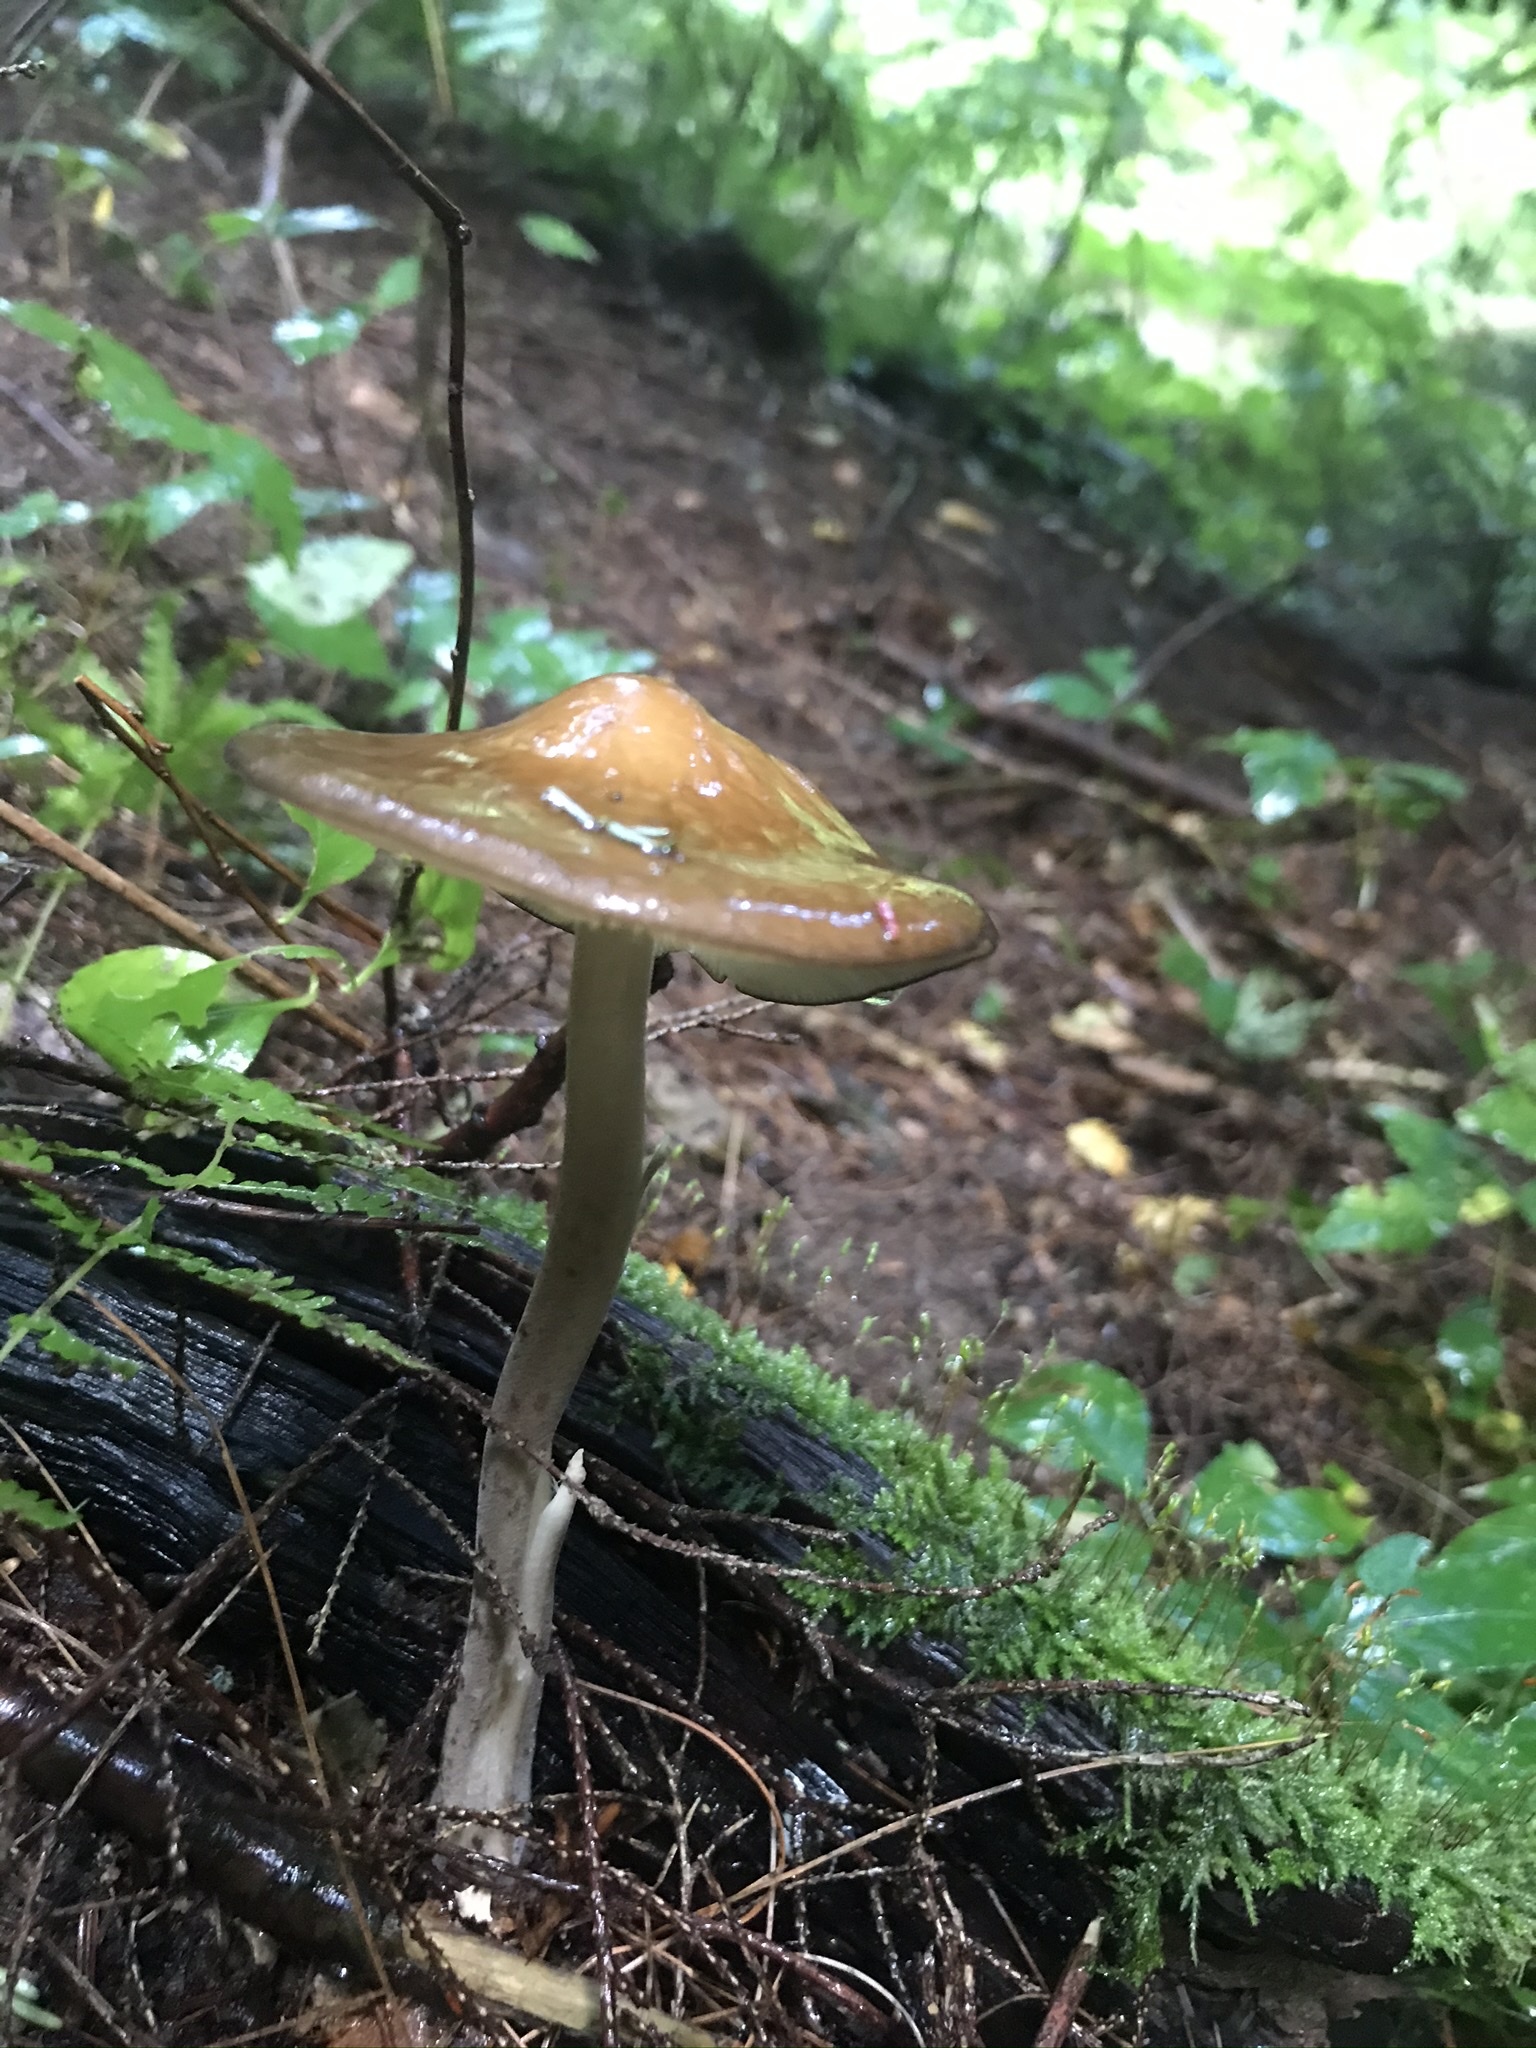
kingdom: Fungi
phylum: Basidiomycota
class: Agaricomycetes
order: Agaricales
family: Physalacriaceae
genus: Hymenopellis
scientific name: Hymenopellis furfuracea
